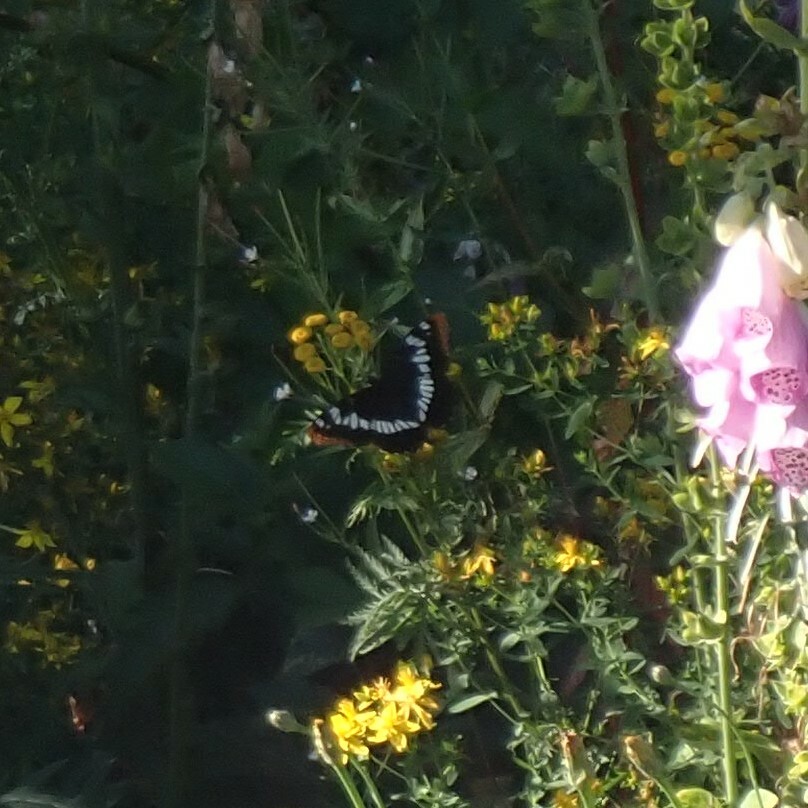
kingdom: Animalia
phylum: Arthropoda
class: Insecta
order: Lepidoptera
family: Nymphalidae
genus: Limenitis
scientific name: Limenitis lorquini
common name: Lorquin's admiral
